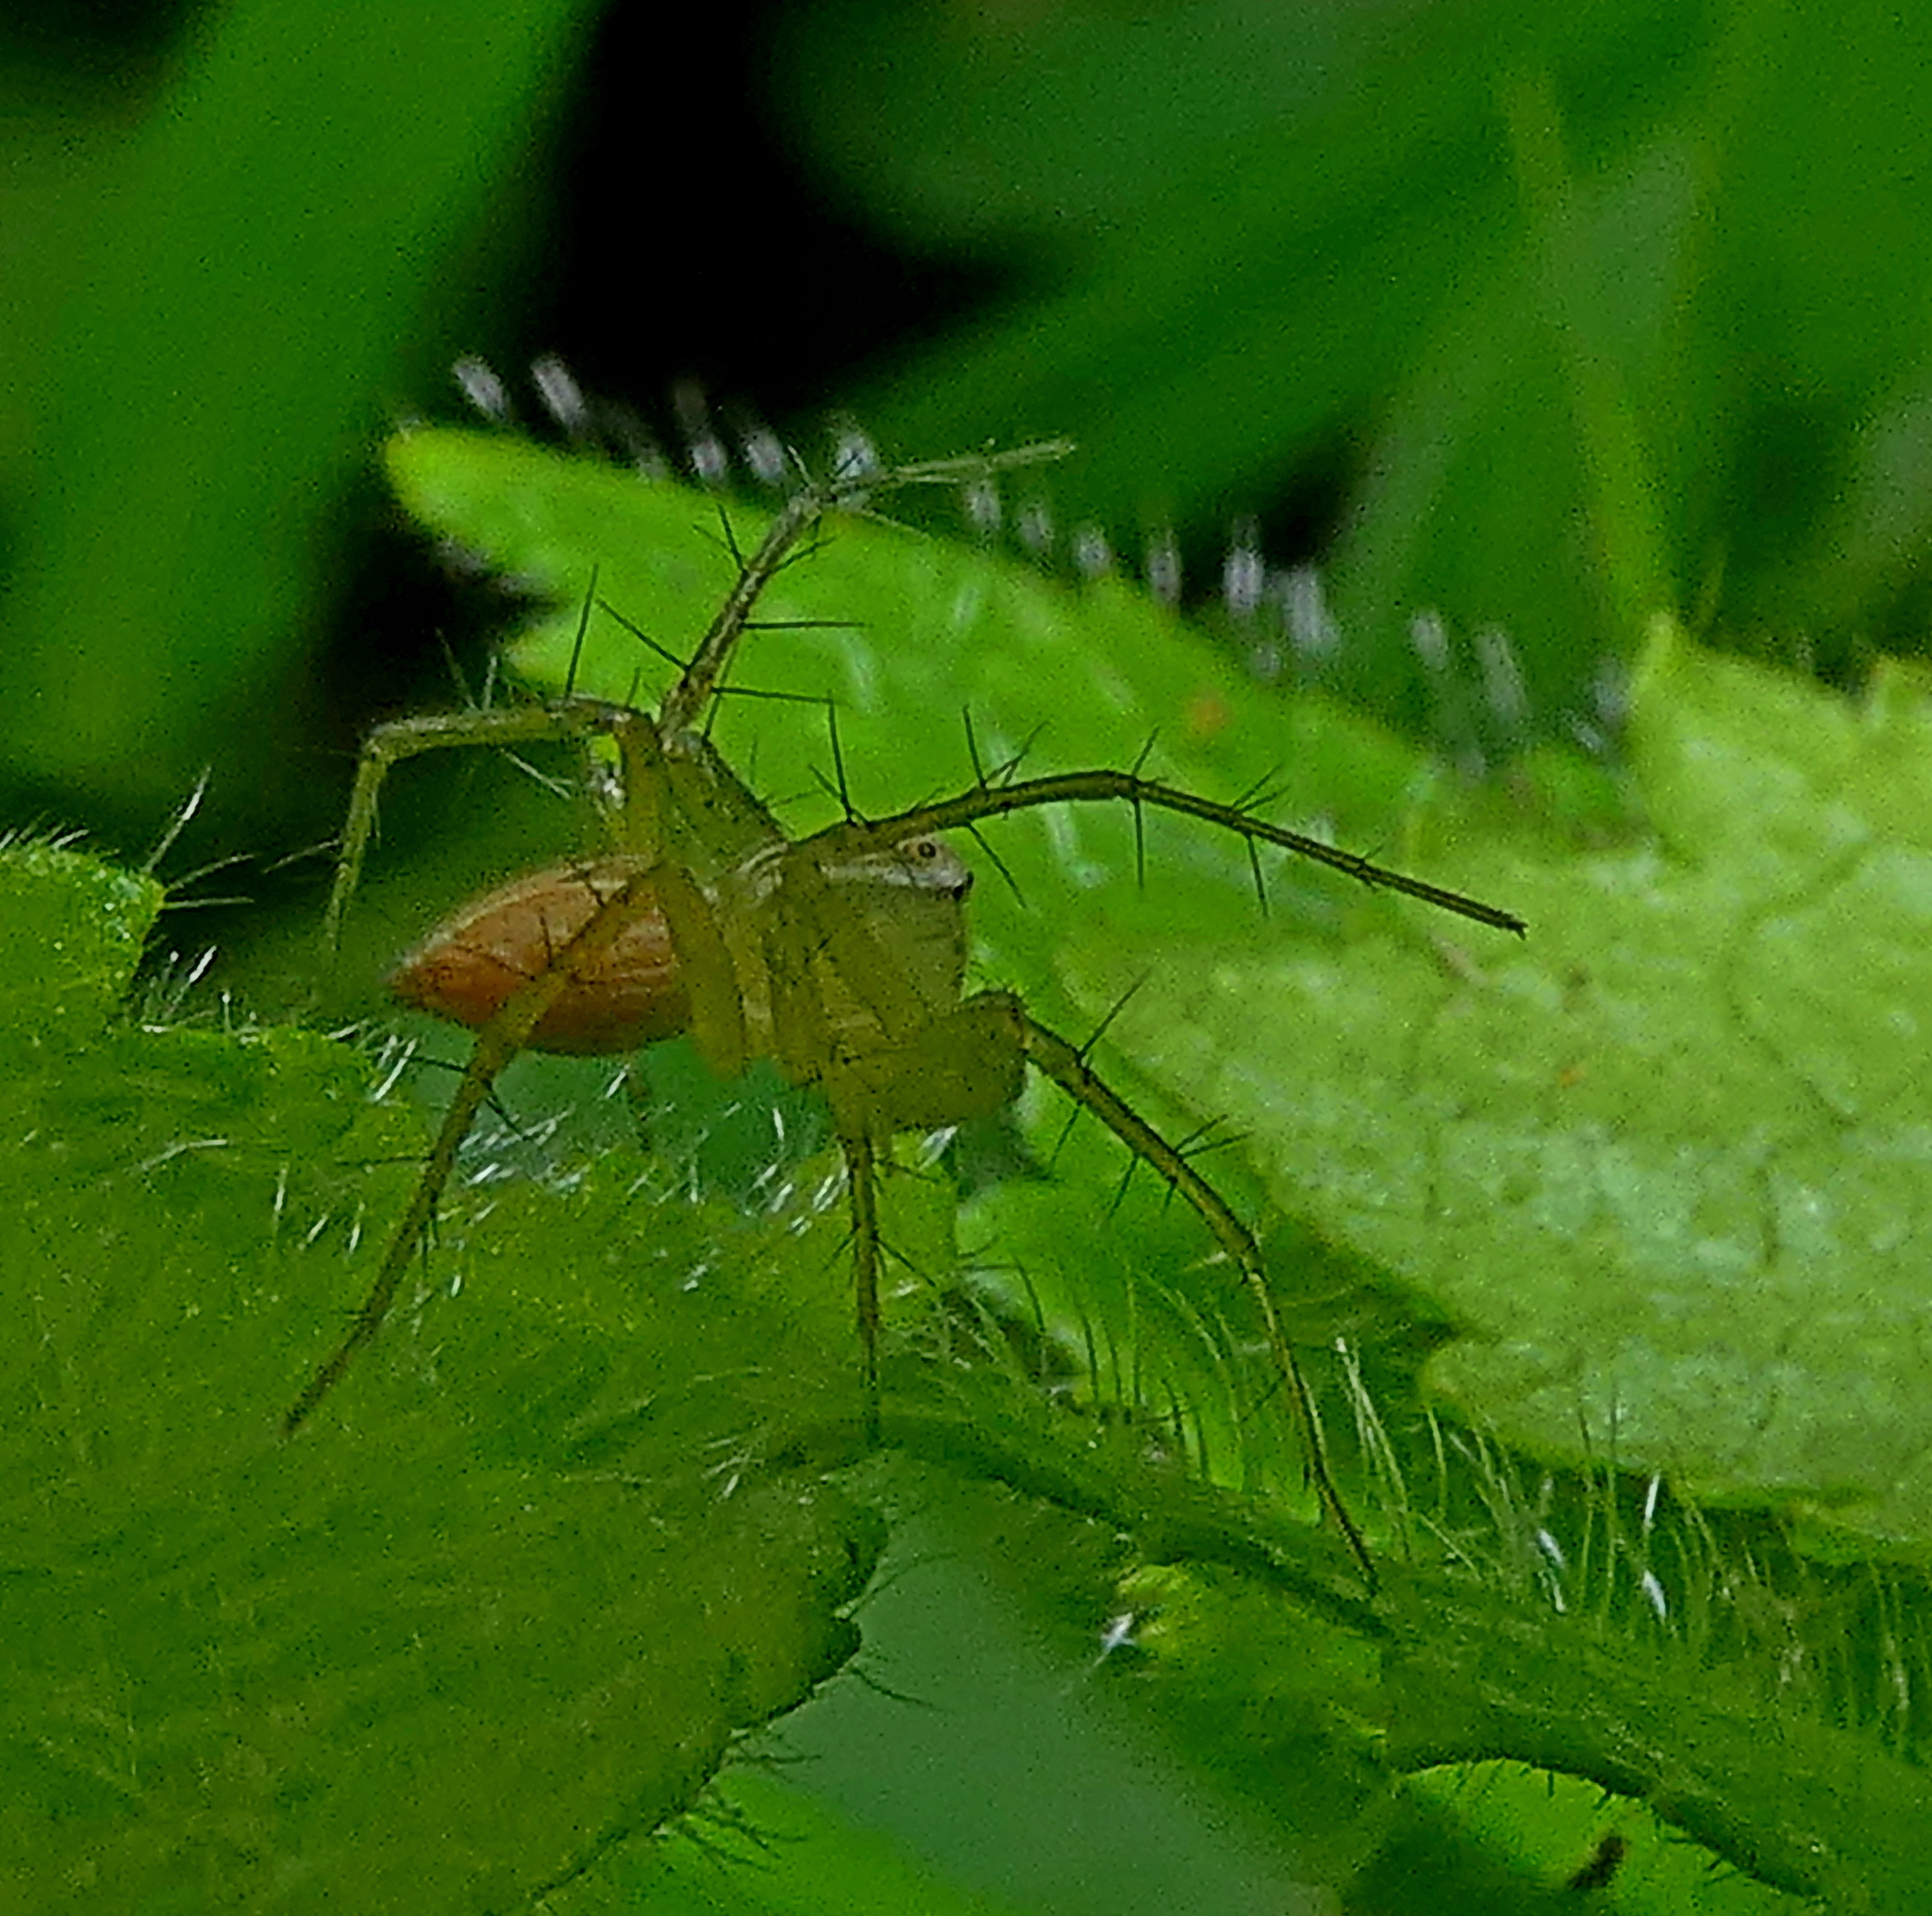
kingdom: Animalia
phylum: Arthropoda
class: Arachnida
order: Araneae
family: Oxyopidae
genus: Oxyopes
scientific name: Oxyopes salticus
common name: Lynx spiders
